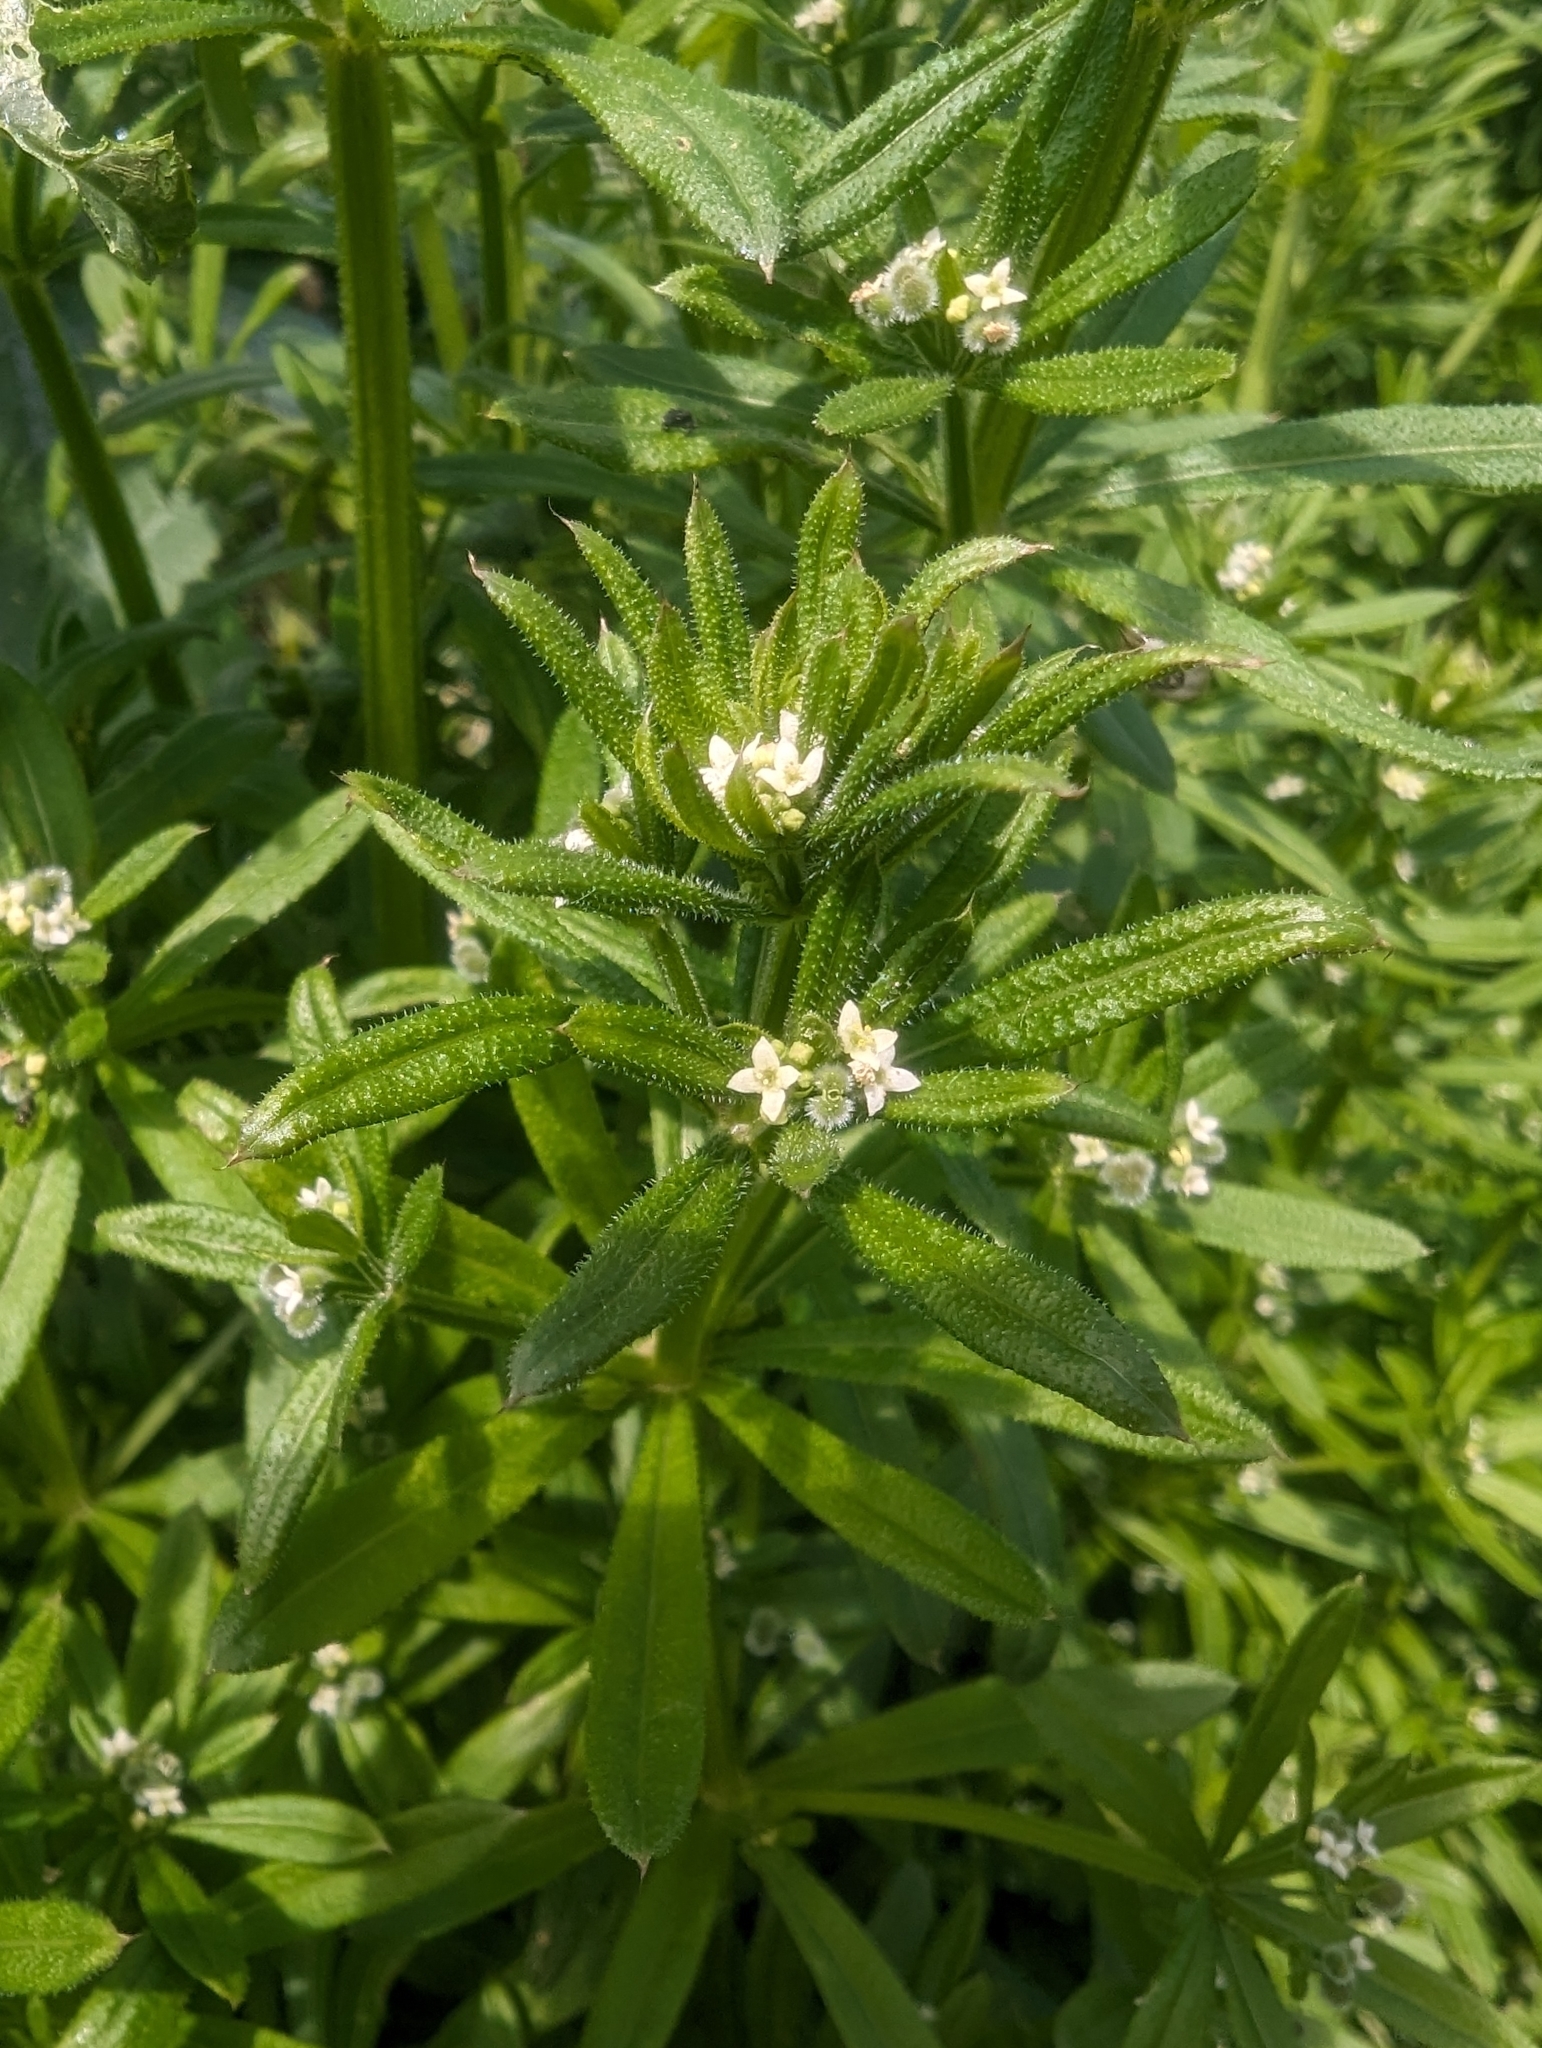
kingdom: Plantae
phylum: Tracheophyta
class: Magnoliopsida
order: Gentianales
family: Rubiaceae
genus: Galium
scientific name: Galium aparine
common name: Cleavers
